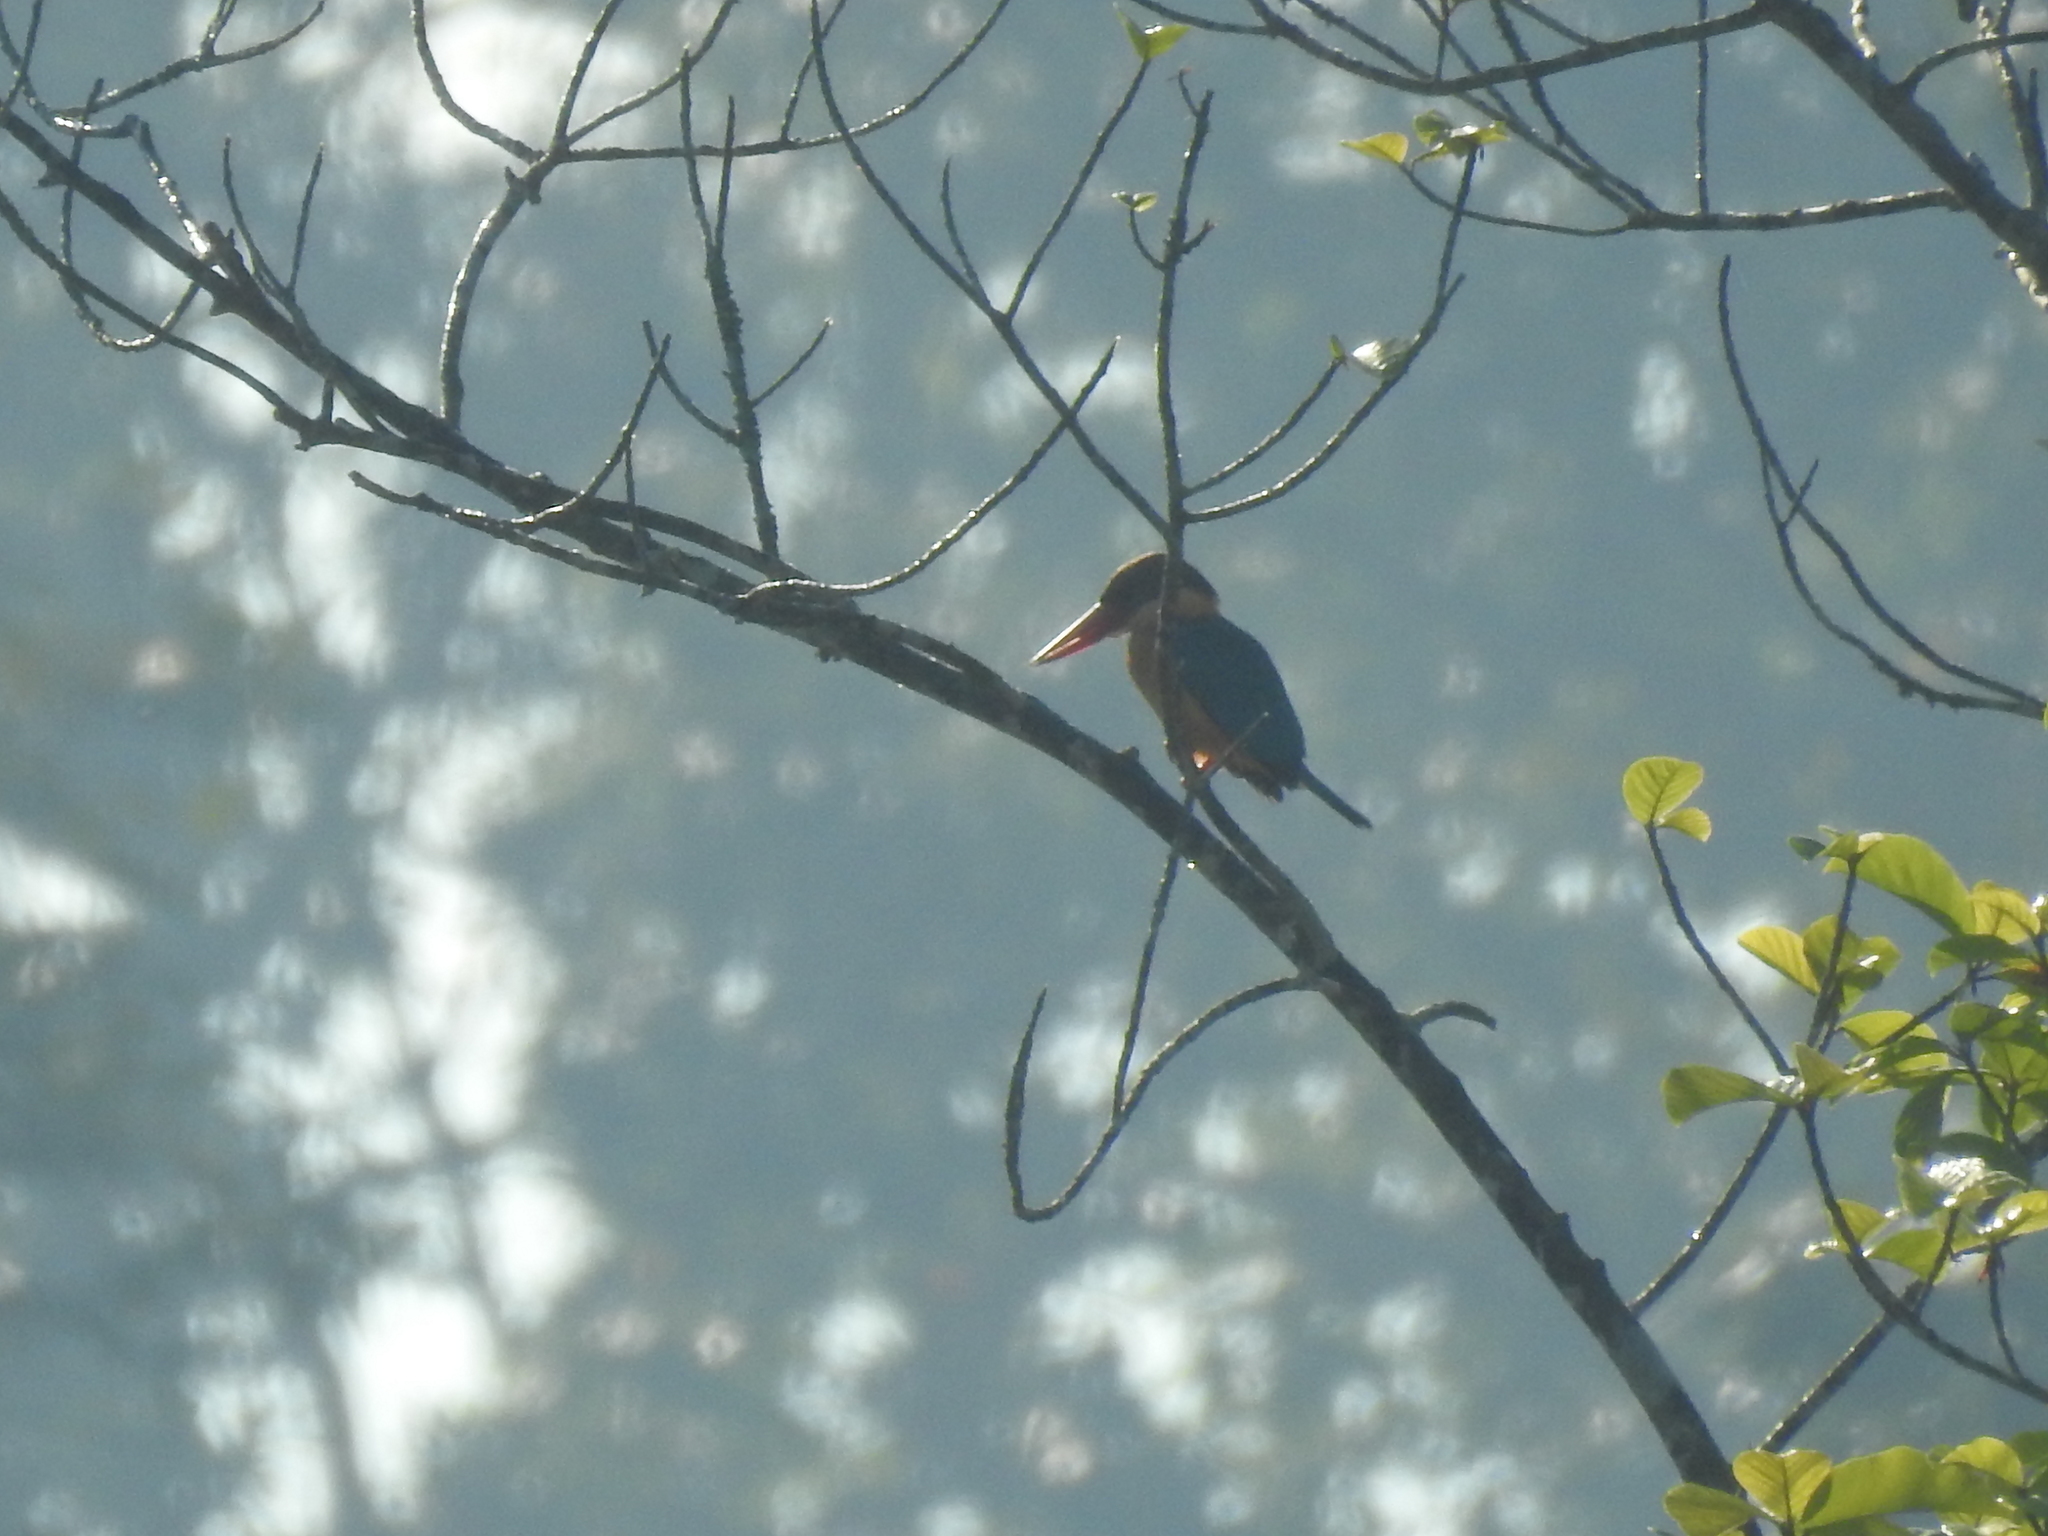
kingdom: Animalia
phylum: Chordata
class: Aves
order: Coraciiformes
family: Alcedinidae
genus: Pelargopsis
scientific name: Pelargopsis capensis
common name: Stork-billed kingfisher
